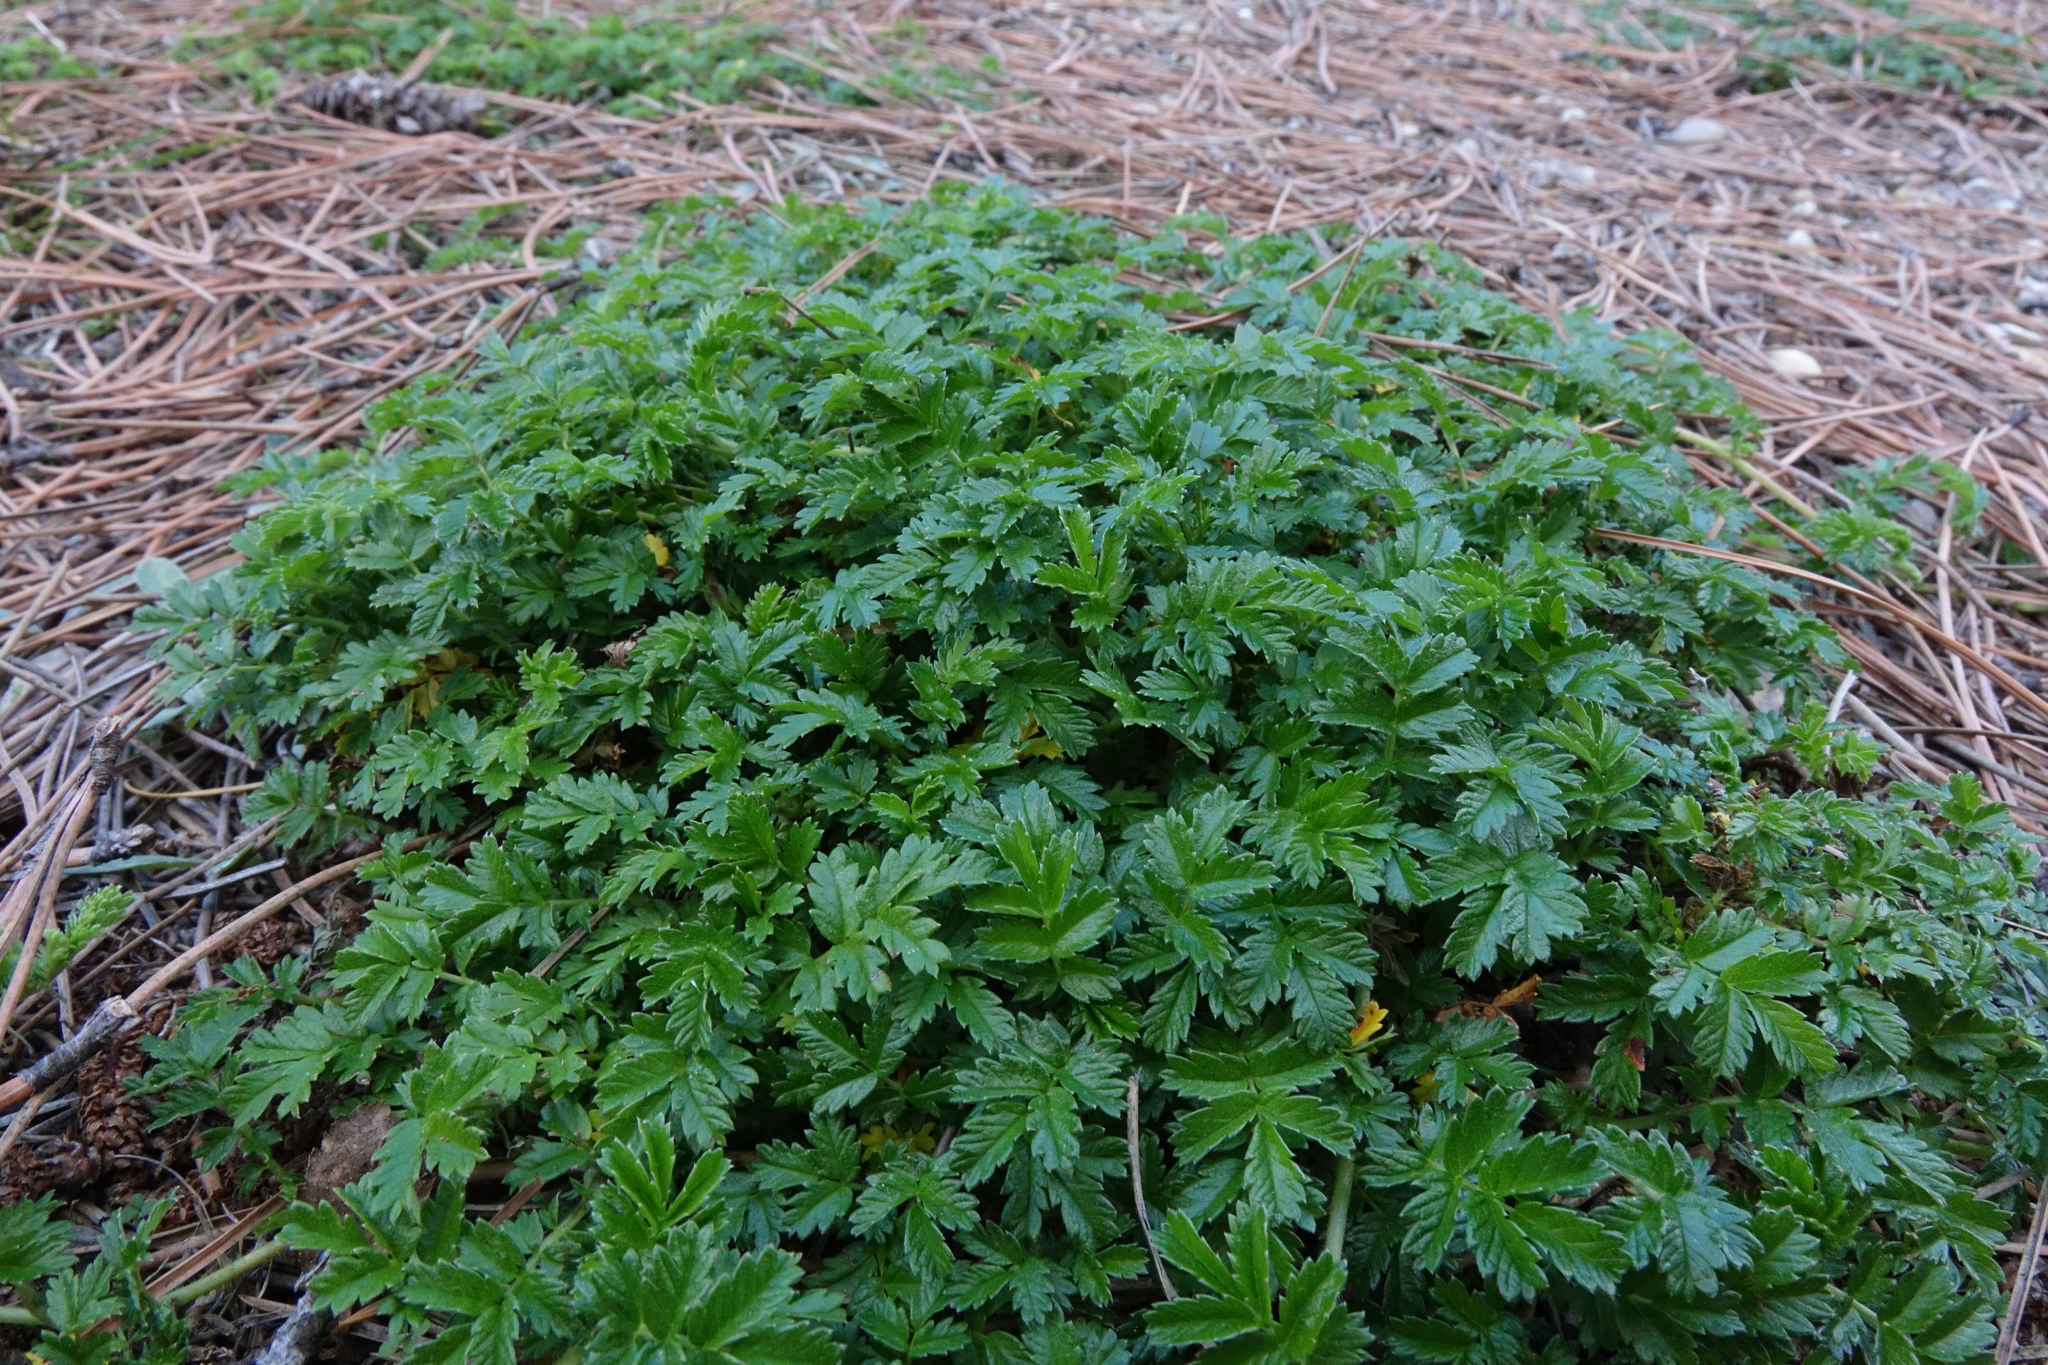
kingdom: Plantae
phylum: Tracheophyta
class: Magnoliopsida
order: Rosales
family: Rosaceae
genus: Acaena
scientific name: Acaena novae-zelandiae
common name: Pirri-pirri-bur
